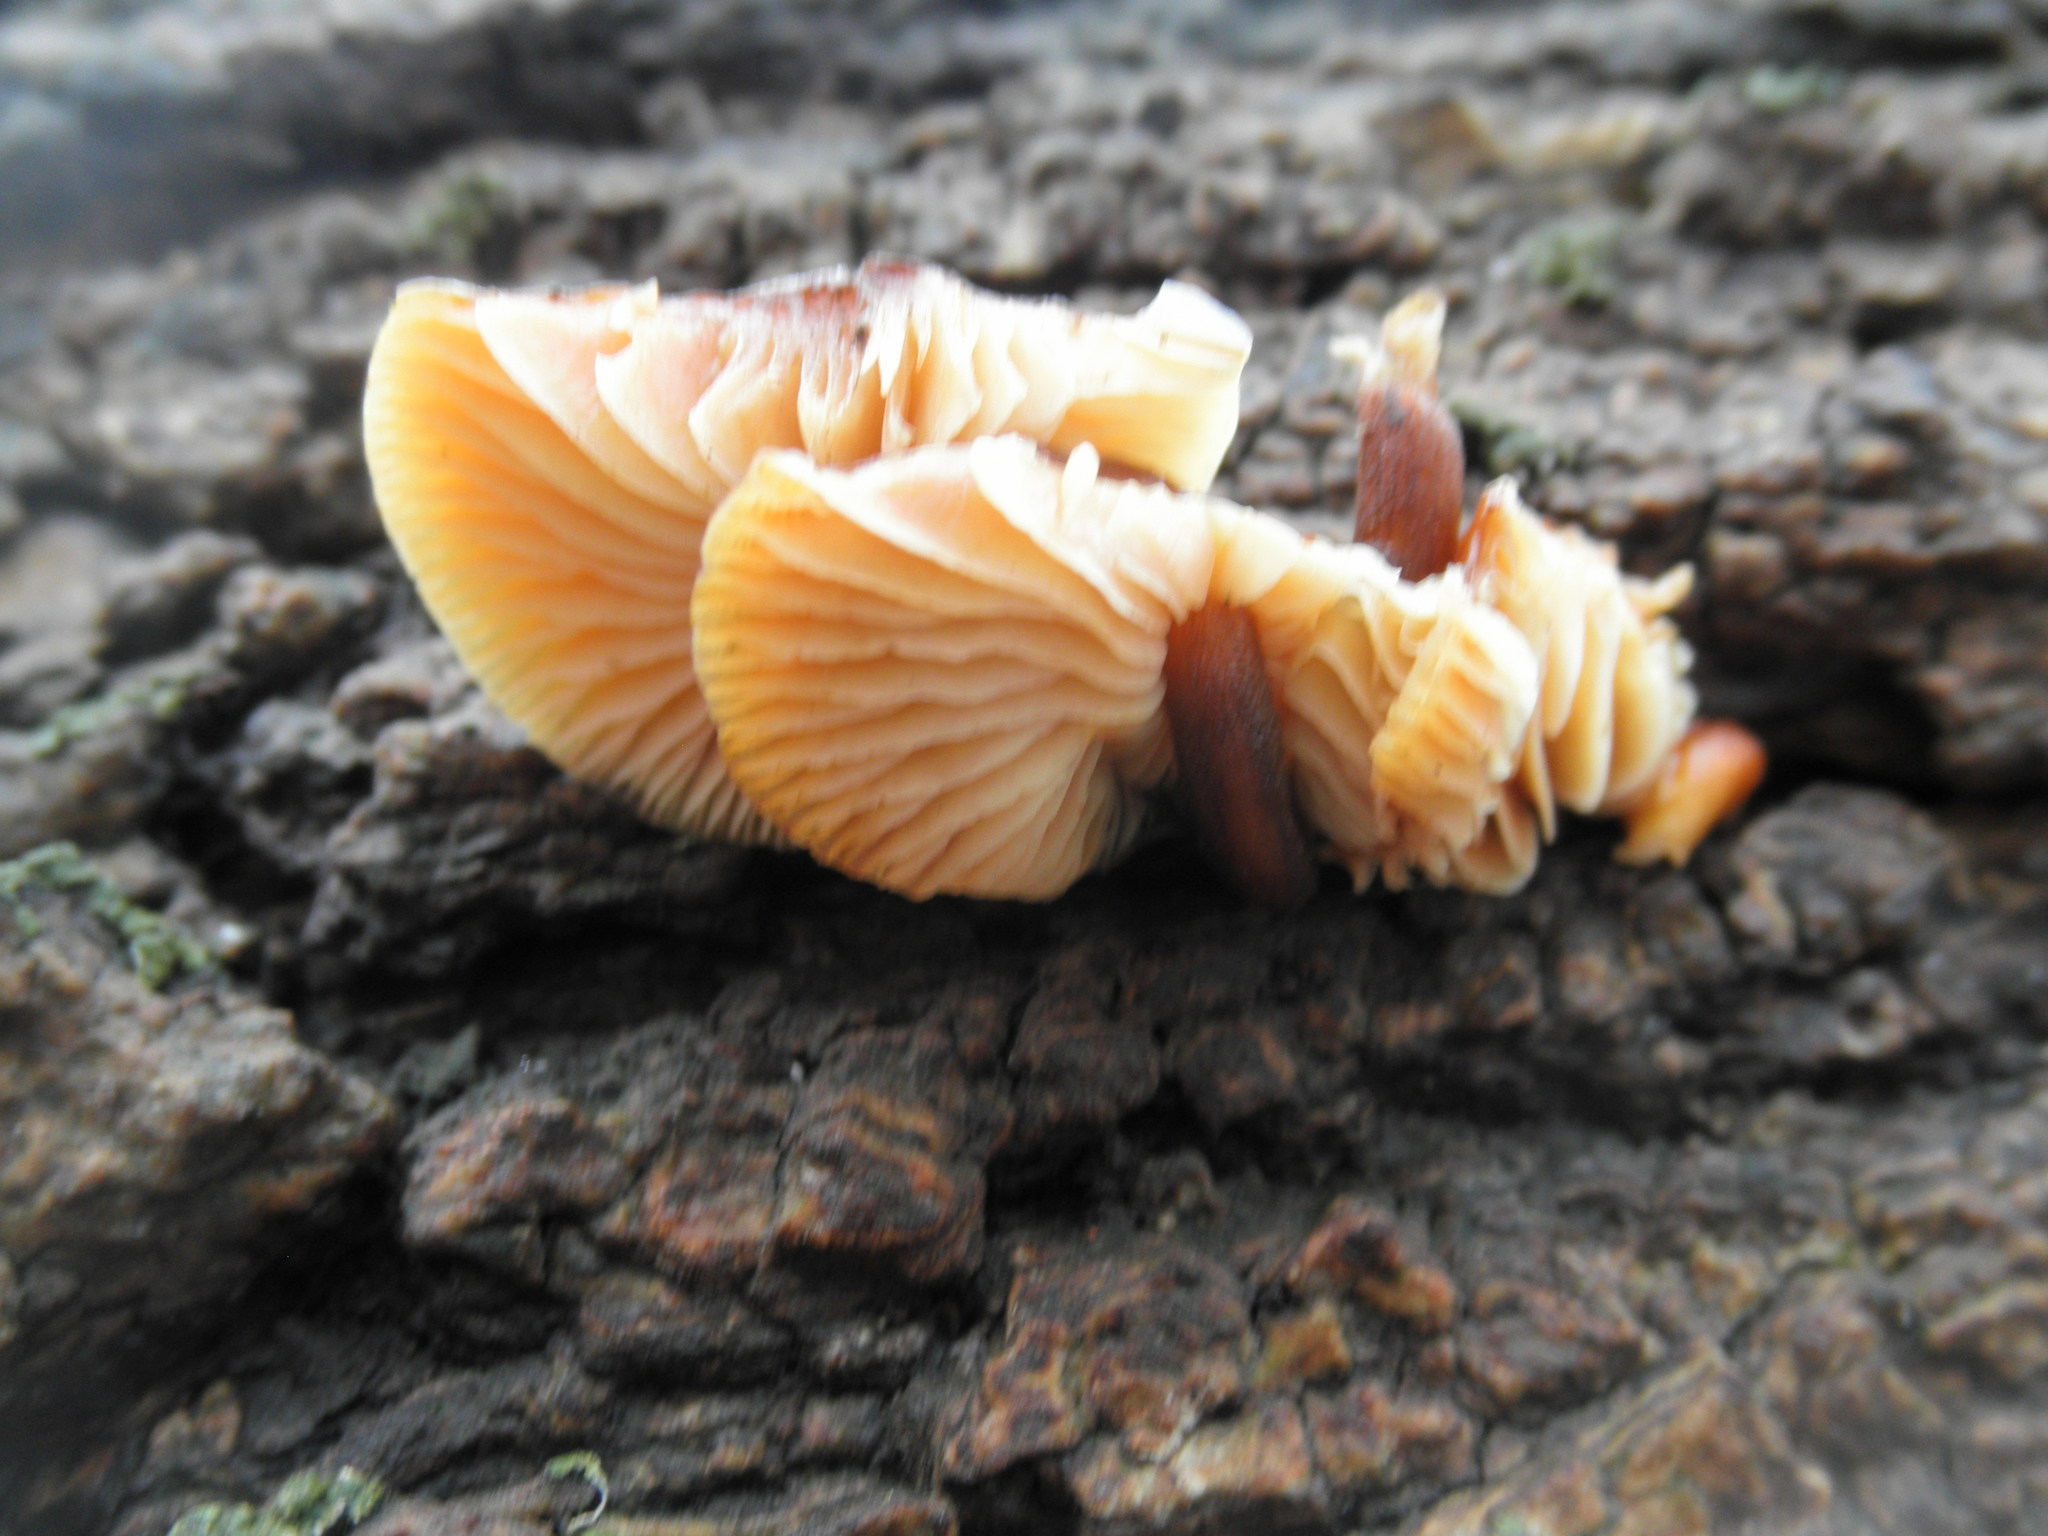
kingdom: Fungi
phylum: Basidiomycota
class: Agaricomycetes
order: Agaricales
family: Physalacriaceae
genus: Flammulina
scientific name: Flammulina velutipes
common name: Velvet shank
